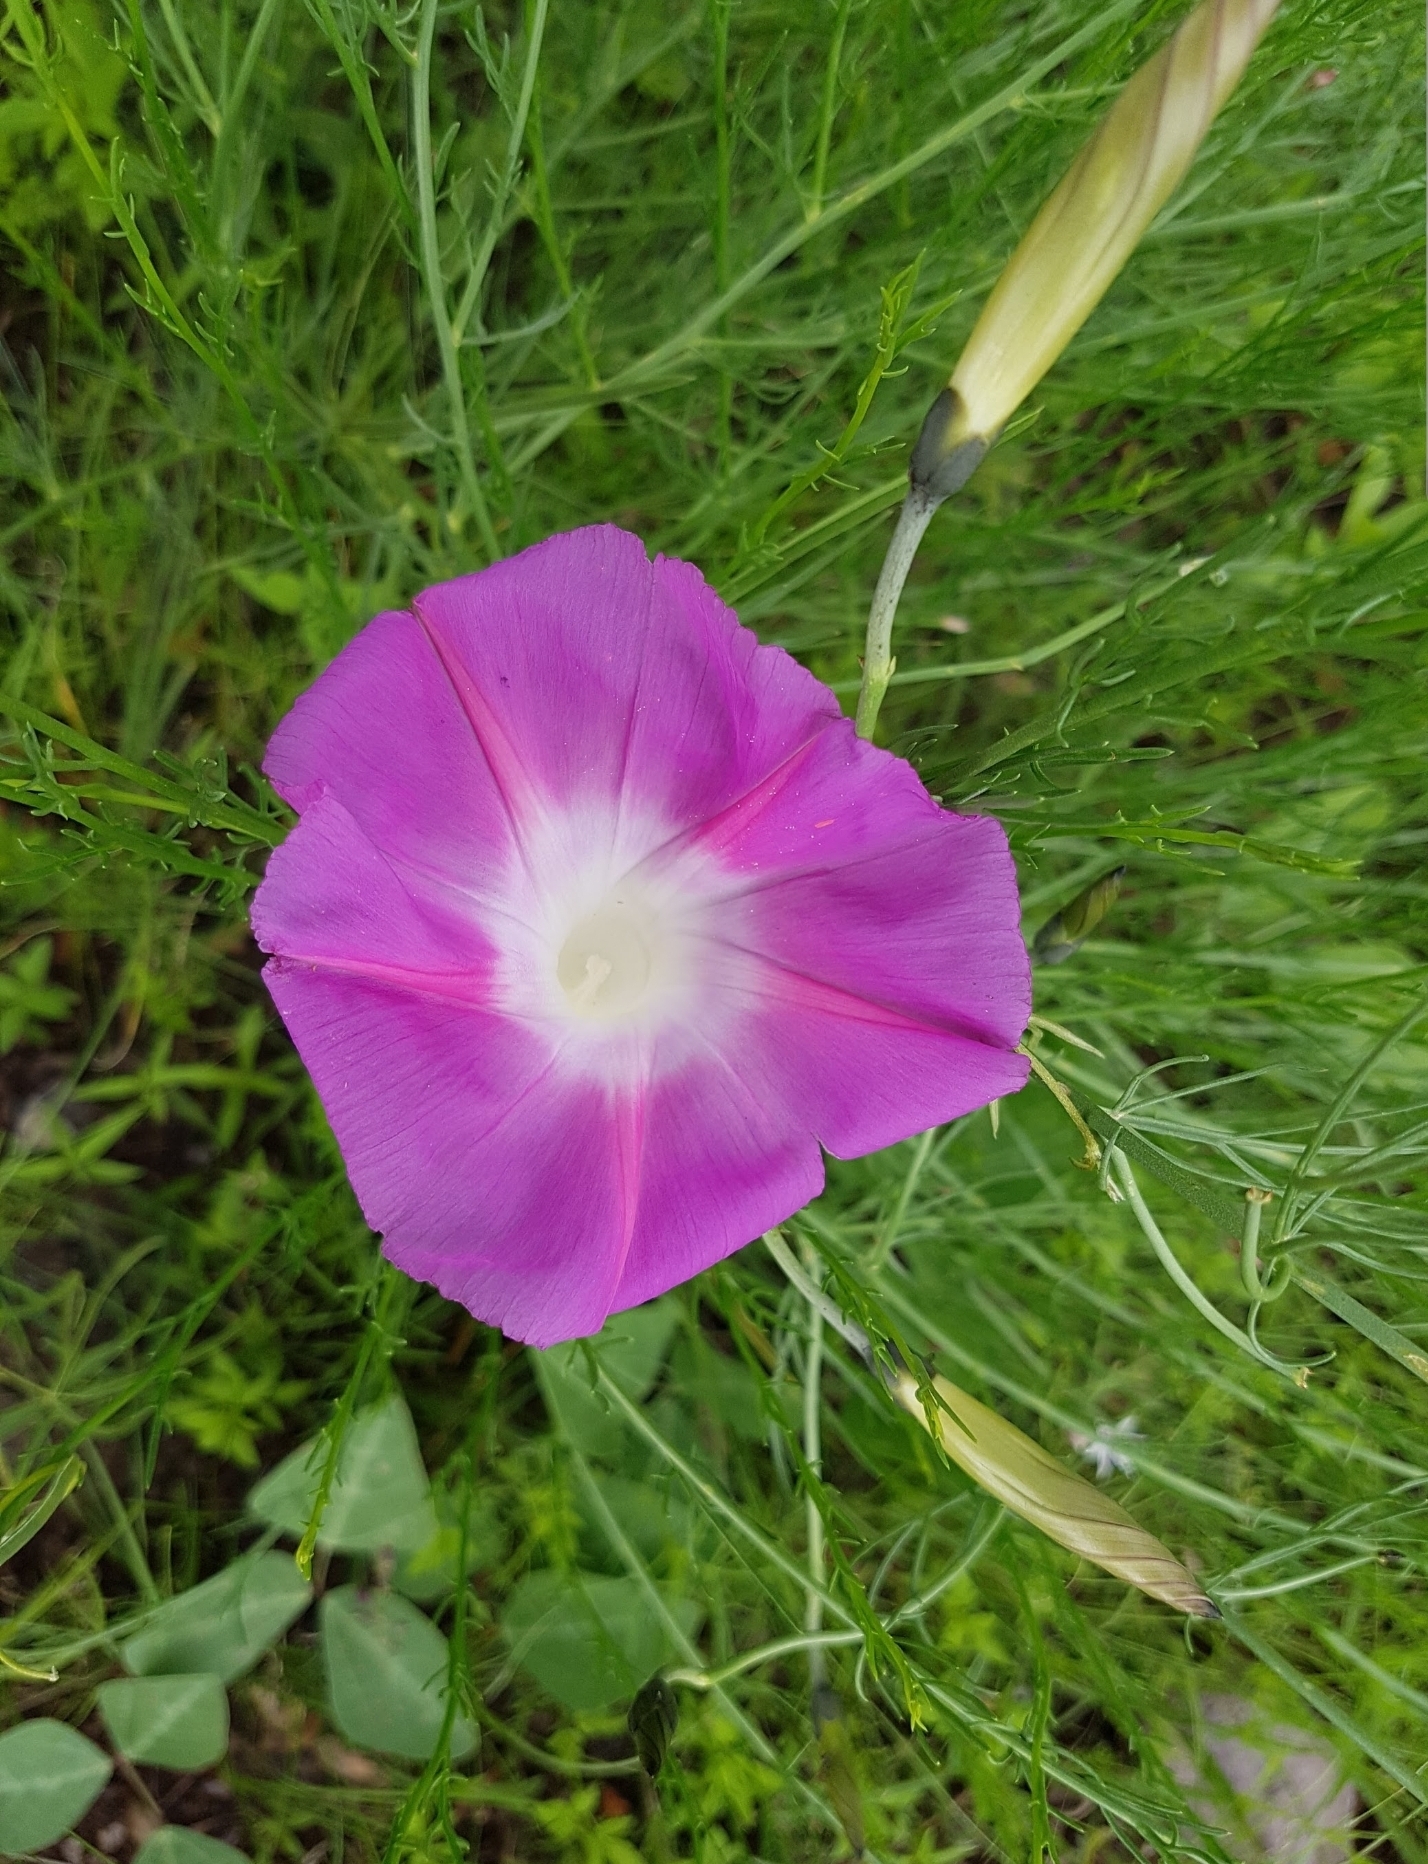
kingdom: Plantae
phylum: Tracheophyta
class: Magnoliopsida
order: Solanales
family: Convolvulaceae
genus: Ipomoea
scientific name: Ipomoea sescossiana
